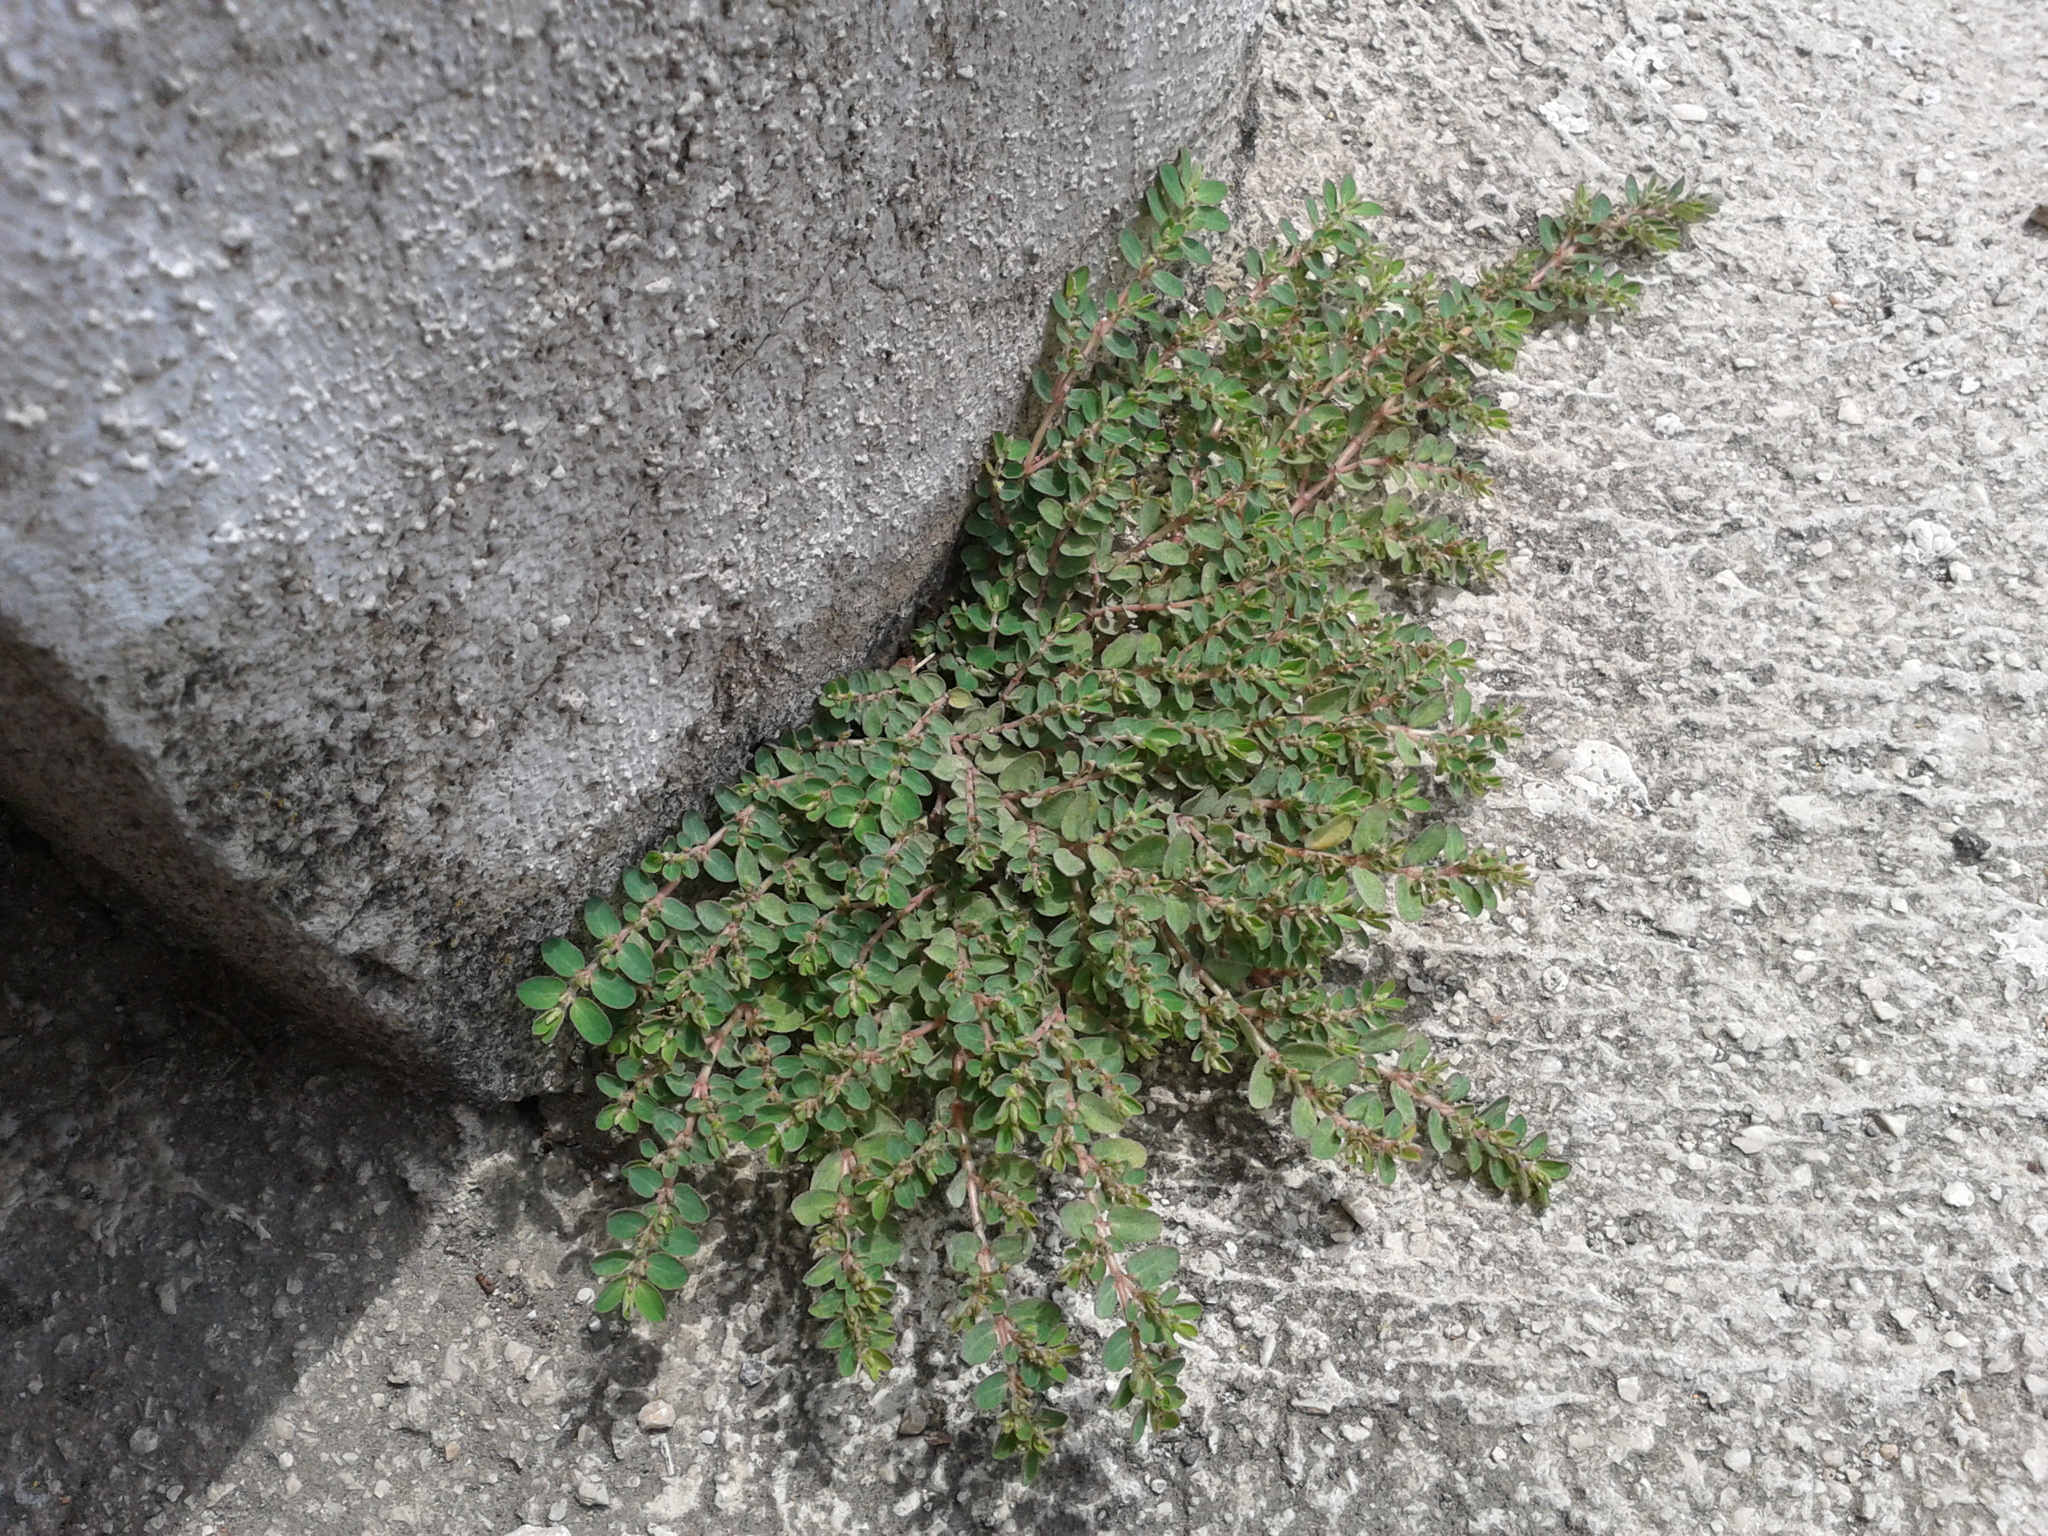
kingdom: Plantae
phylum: Tracheophyta
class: Magnoliopsida
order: Malpighiales
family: Euphorbiaceae
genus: Euphorbia
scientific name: Euphorbia prostrata
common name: Prostrate sandmat
